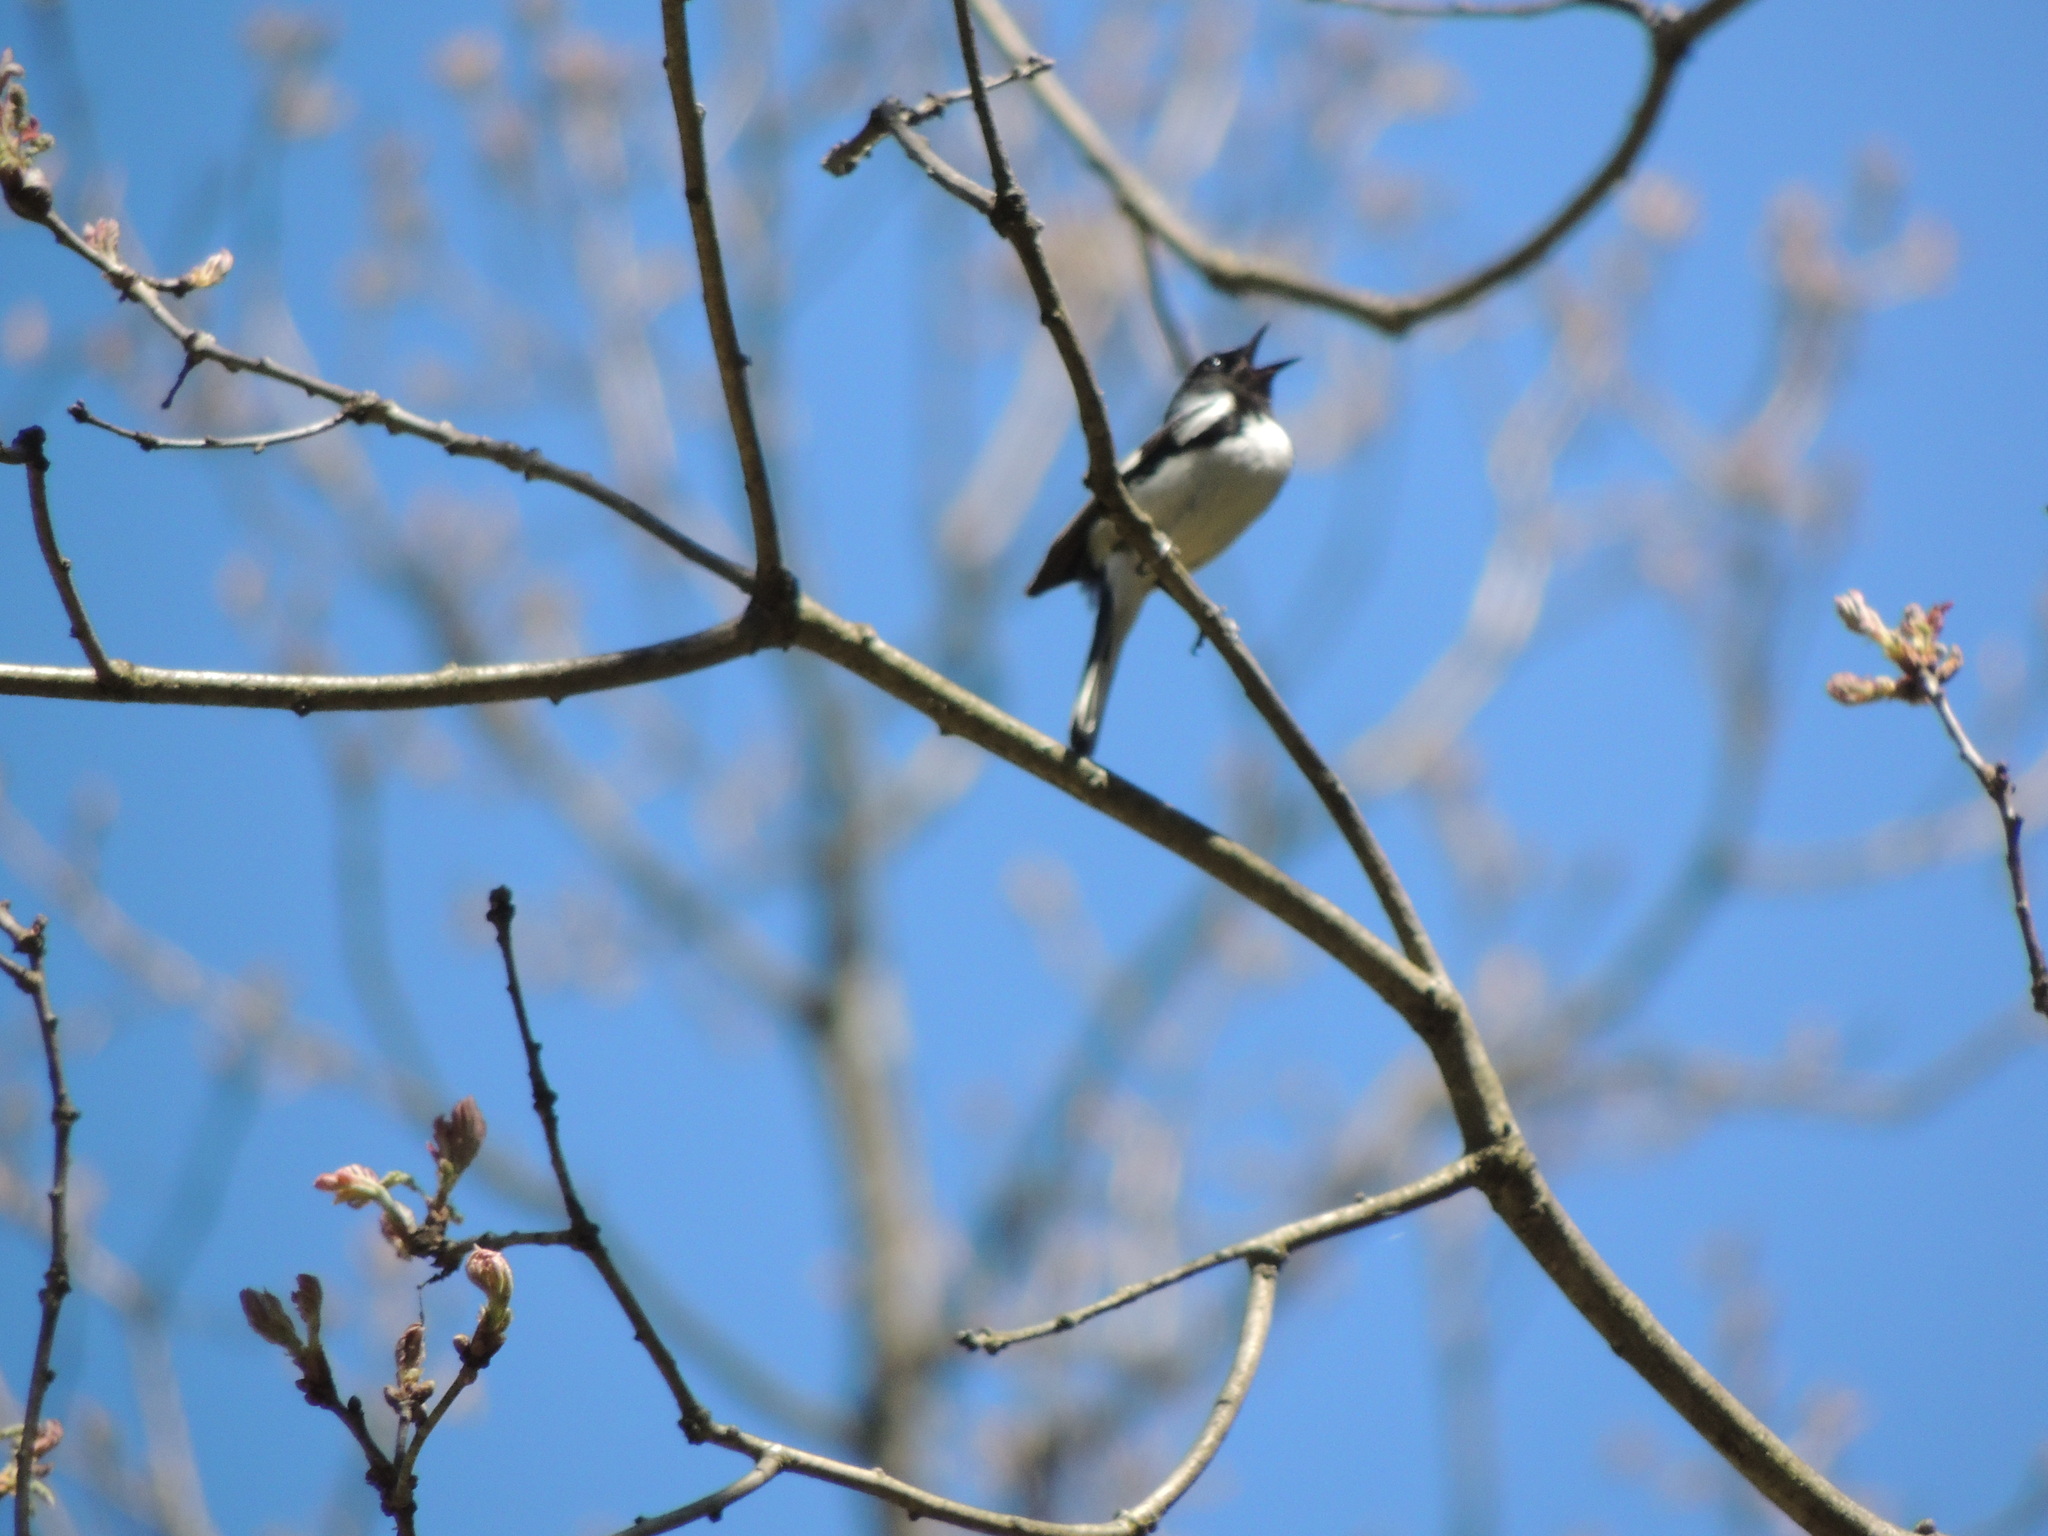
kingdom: Animalia
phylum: Chordata
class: Aves
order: Passeriformes
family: Parulidae
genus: Setophaga
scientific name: Setophaga caerulescens
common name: Black-throated blue warbler
